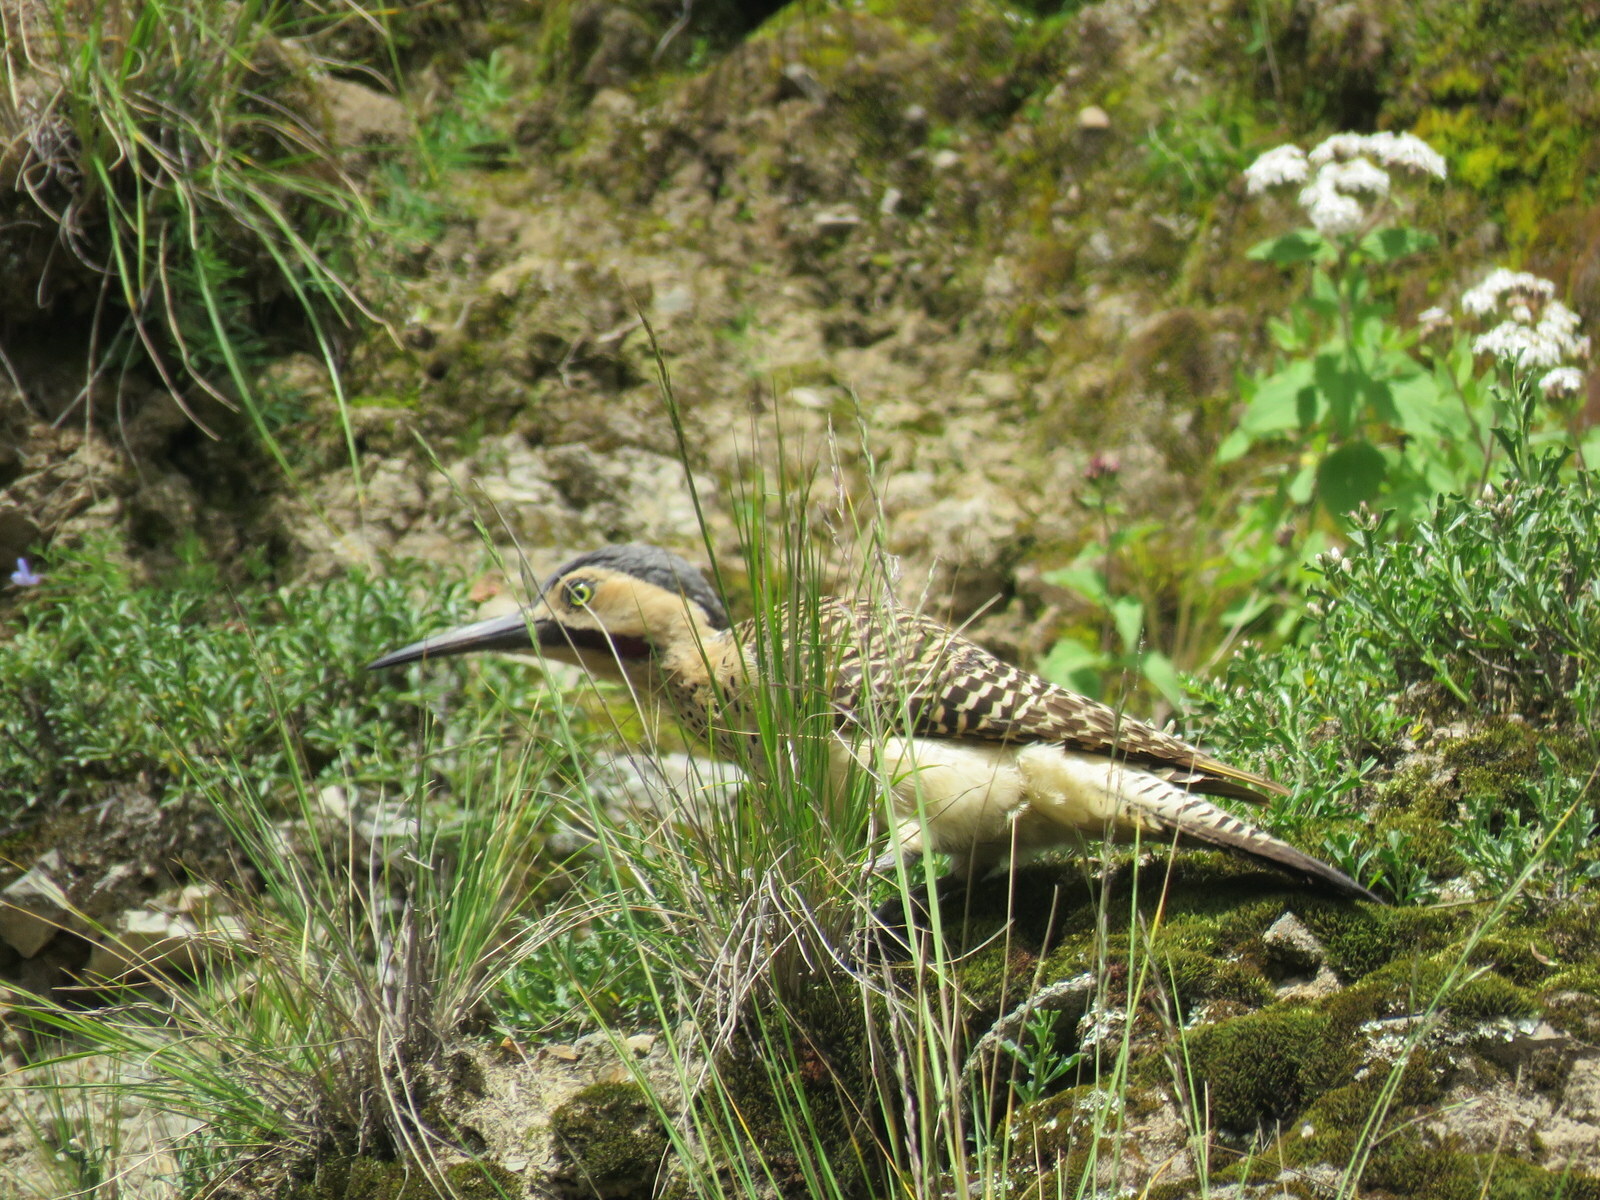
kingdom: Animalia
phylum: Chordata
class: Aves
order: Piciformes
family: Picidae
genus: Colaptes
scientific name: Colaptes rupicola
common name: Andean flicker
